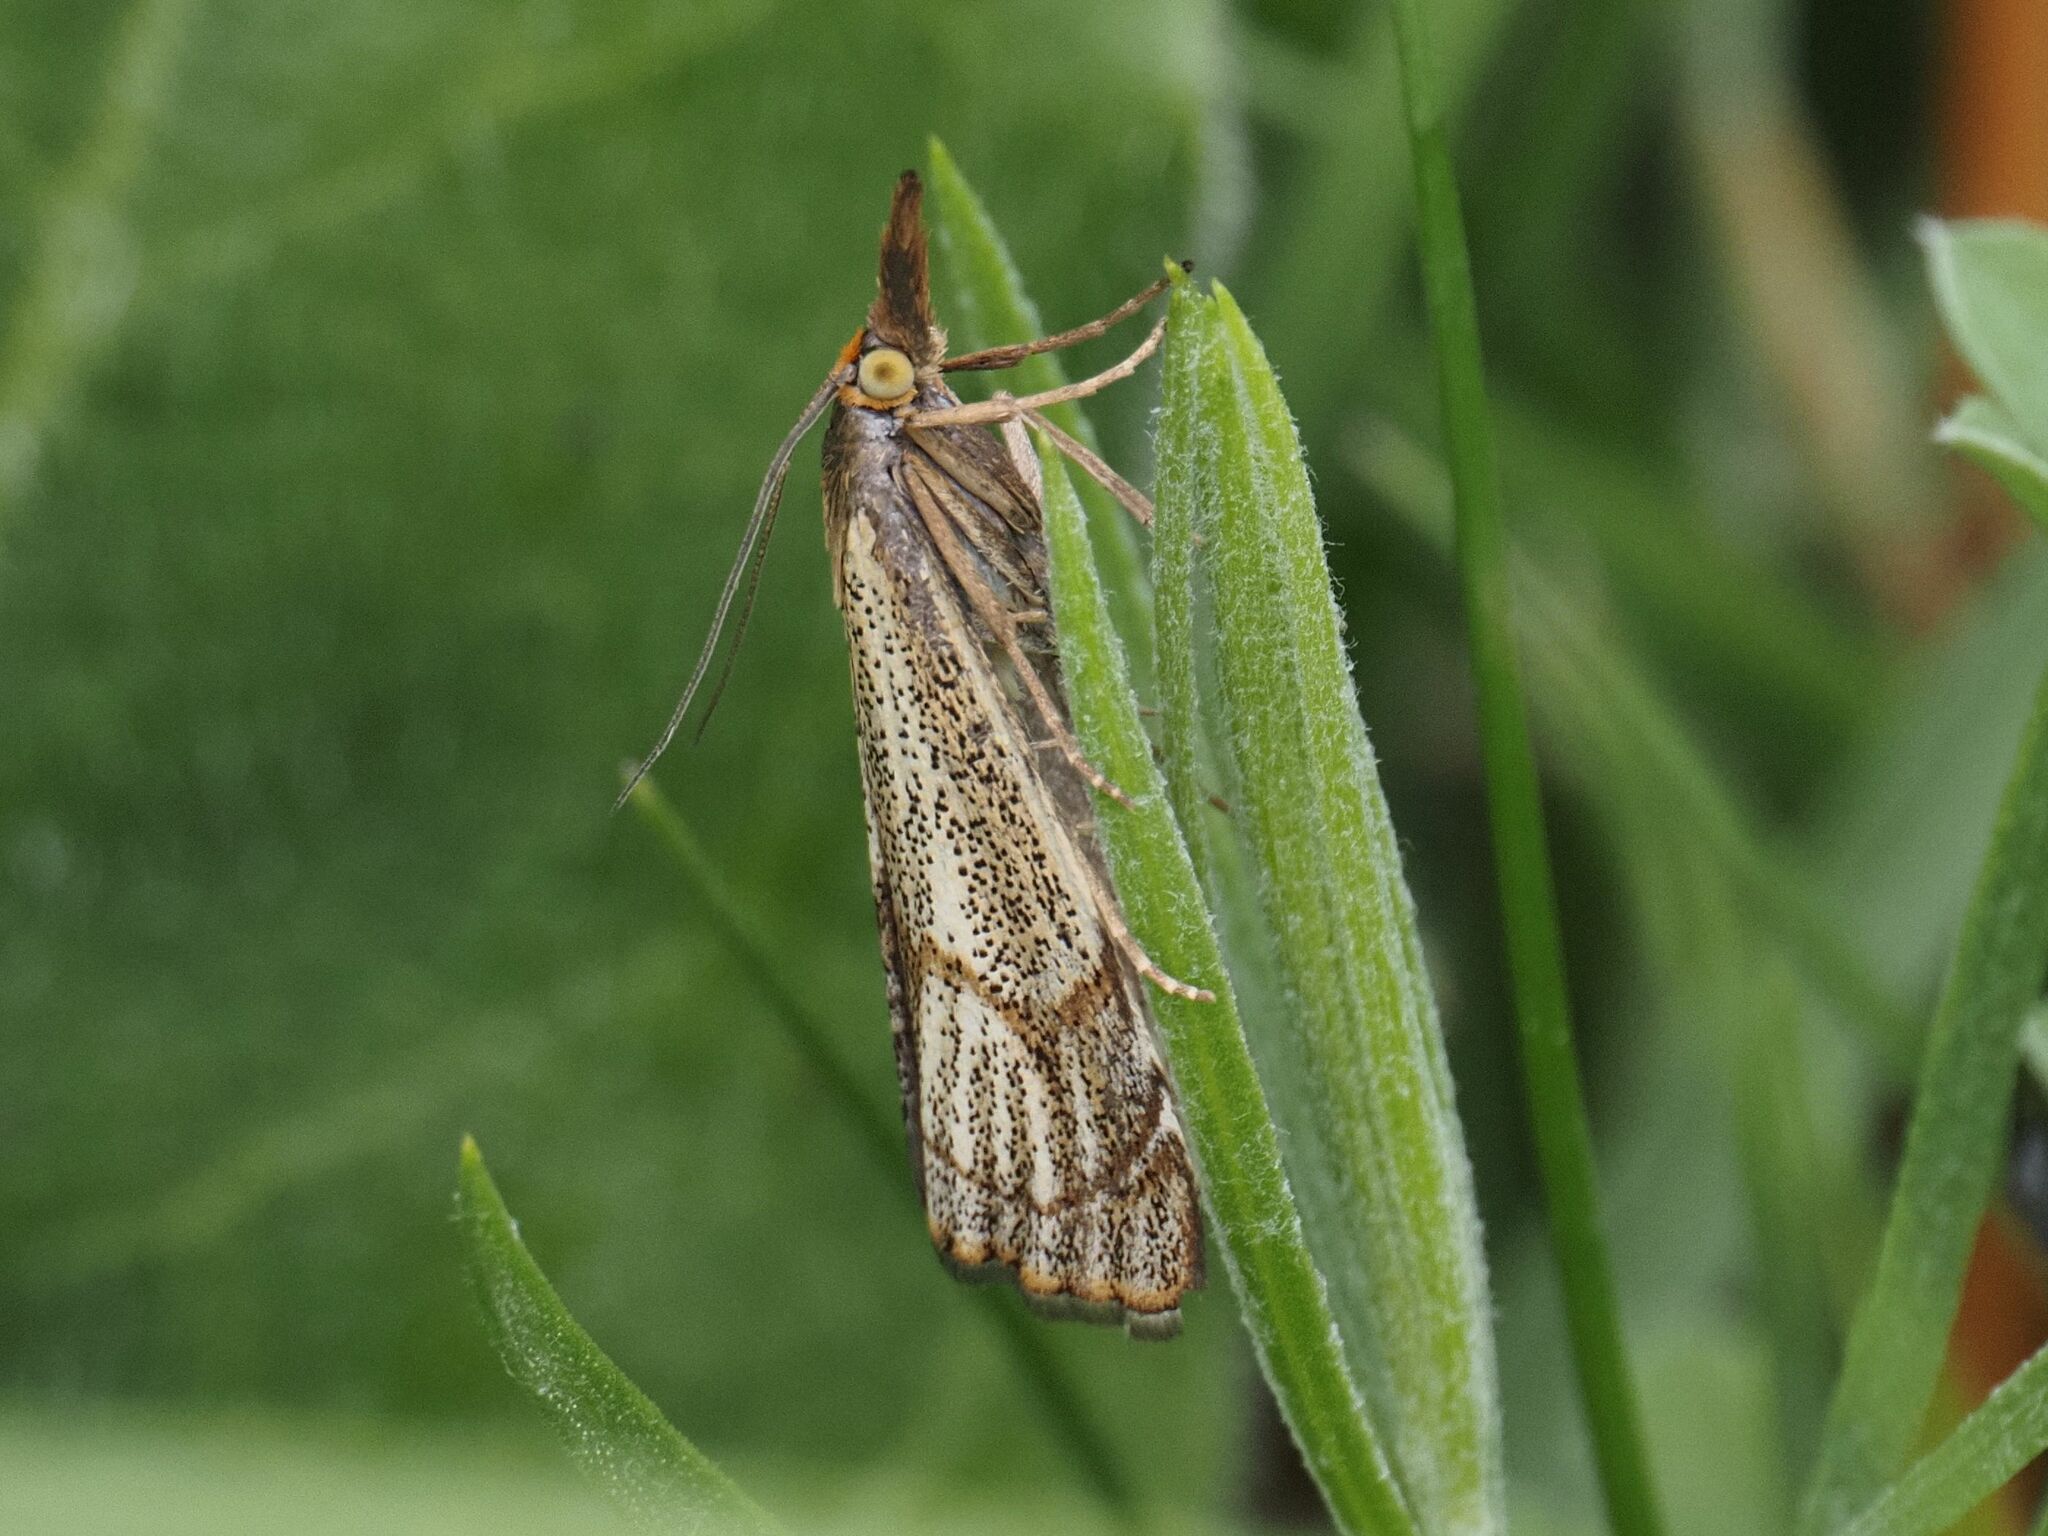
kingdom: Animalia
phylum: Arthropoda
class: Insecta
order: Lepidoptera
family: Crambidae
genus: Thisanotia
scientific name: Thisanotia chrysonuchella
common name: Powdered grass-veneer
